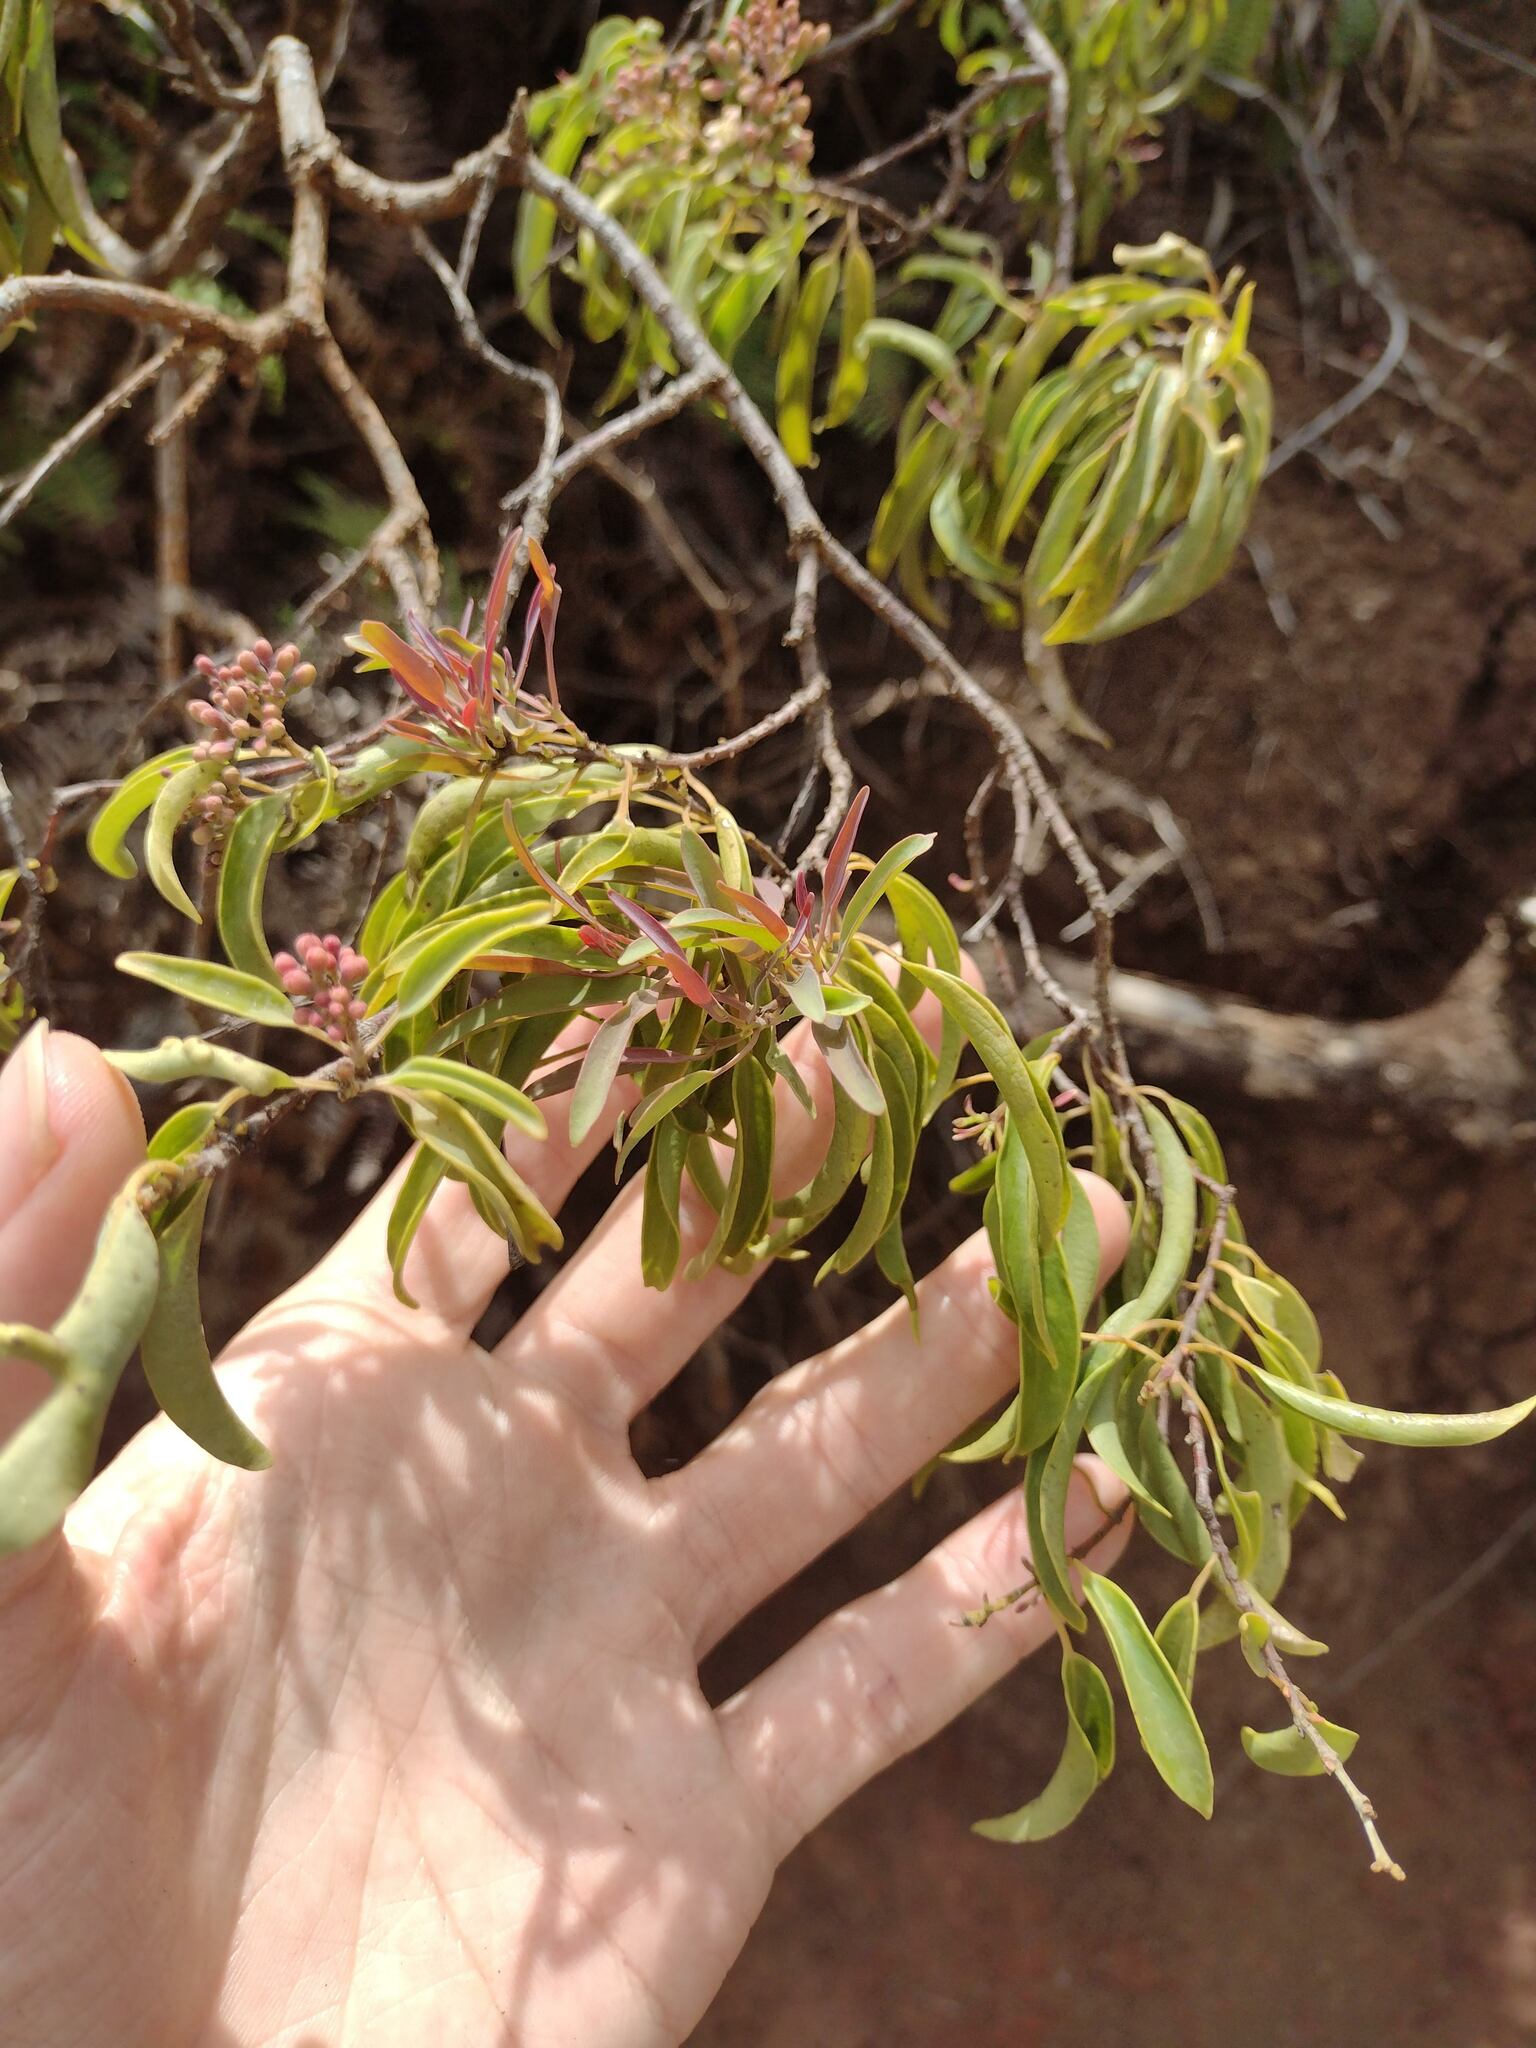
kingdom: Plantae
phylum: Tracheophyta
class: Magnoliopsida
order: Santalales
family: Santalaceae
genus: Santalum
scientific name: Santalum freycinetianum
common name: Lanai sandalwood
